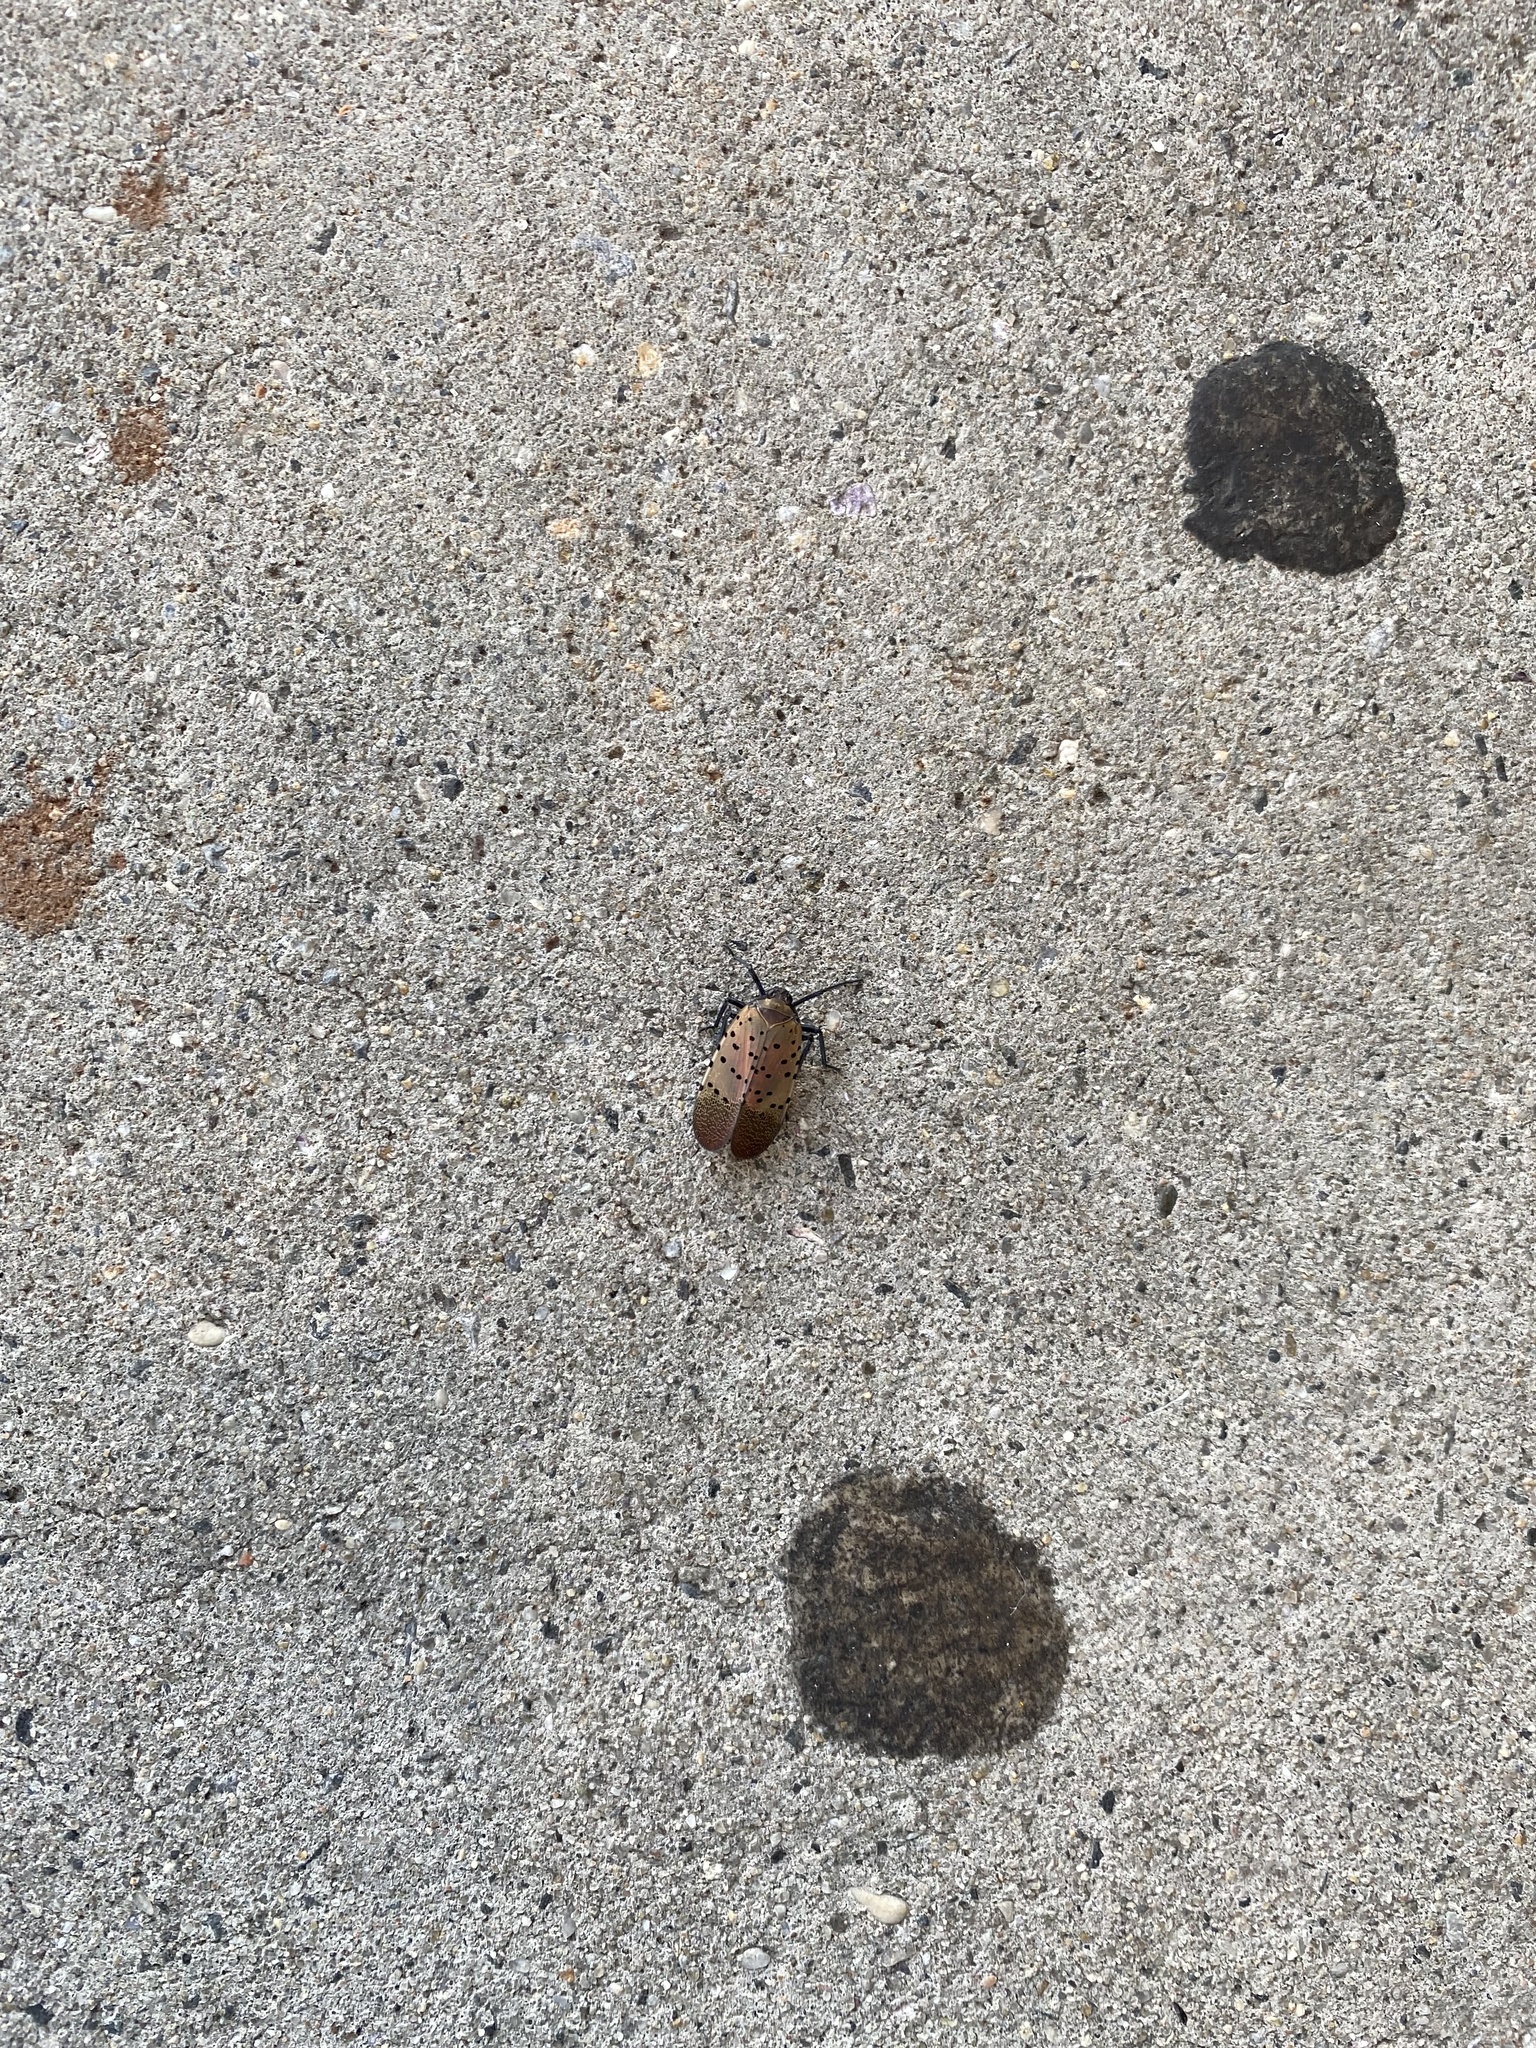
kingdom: Animalia
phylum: Arthropoda
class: Insecta
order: Hemiptera
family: Fulgoridae
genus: Lycorma
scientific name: Lycorma delicatula
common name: Spotted lanternfly
